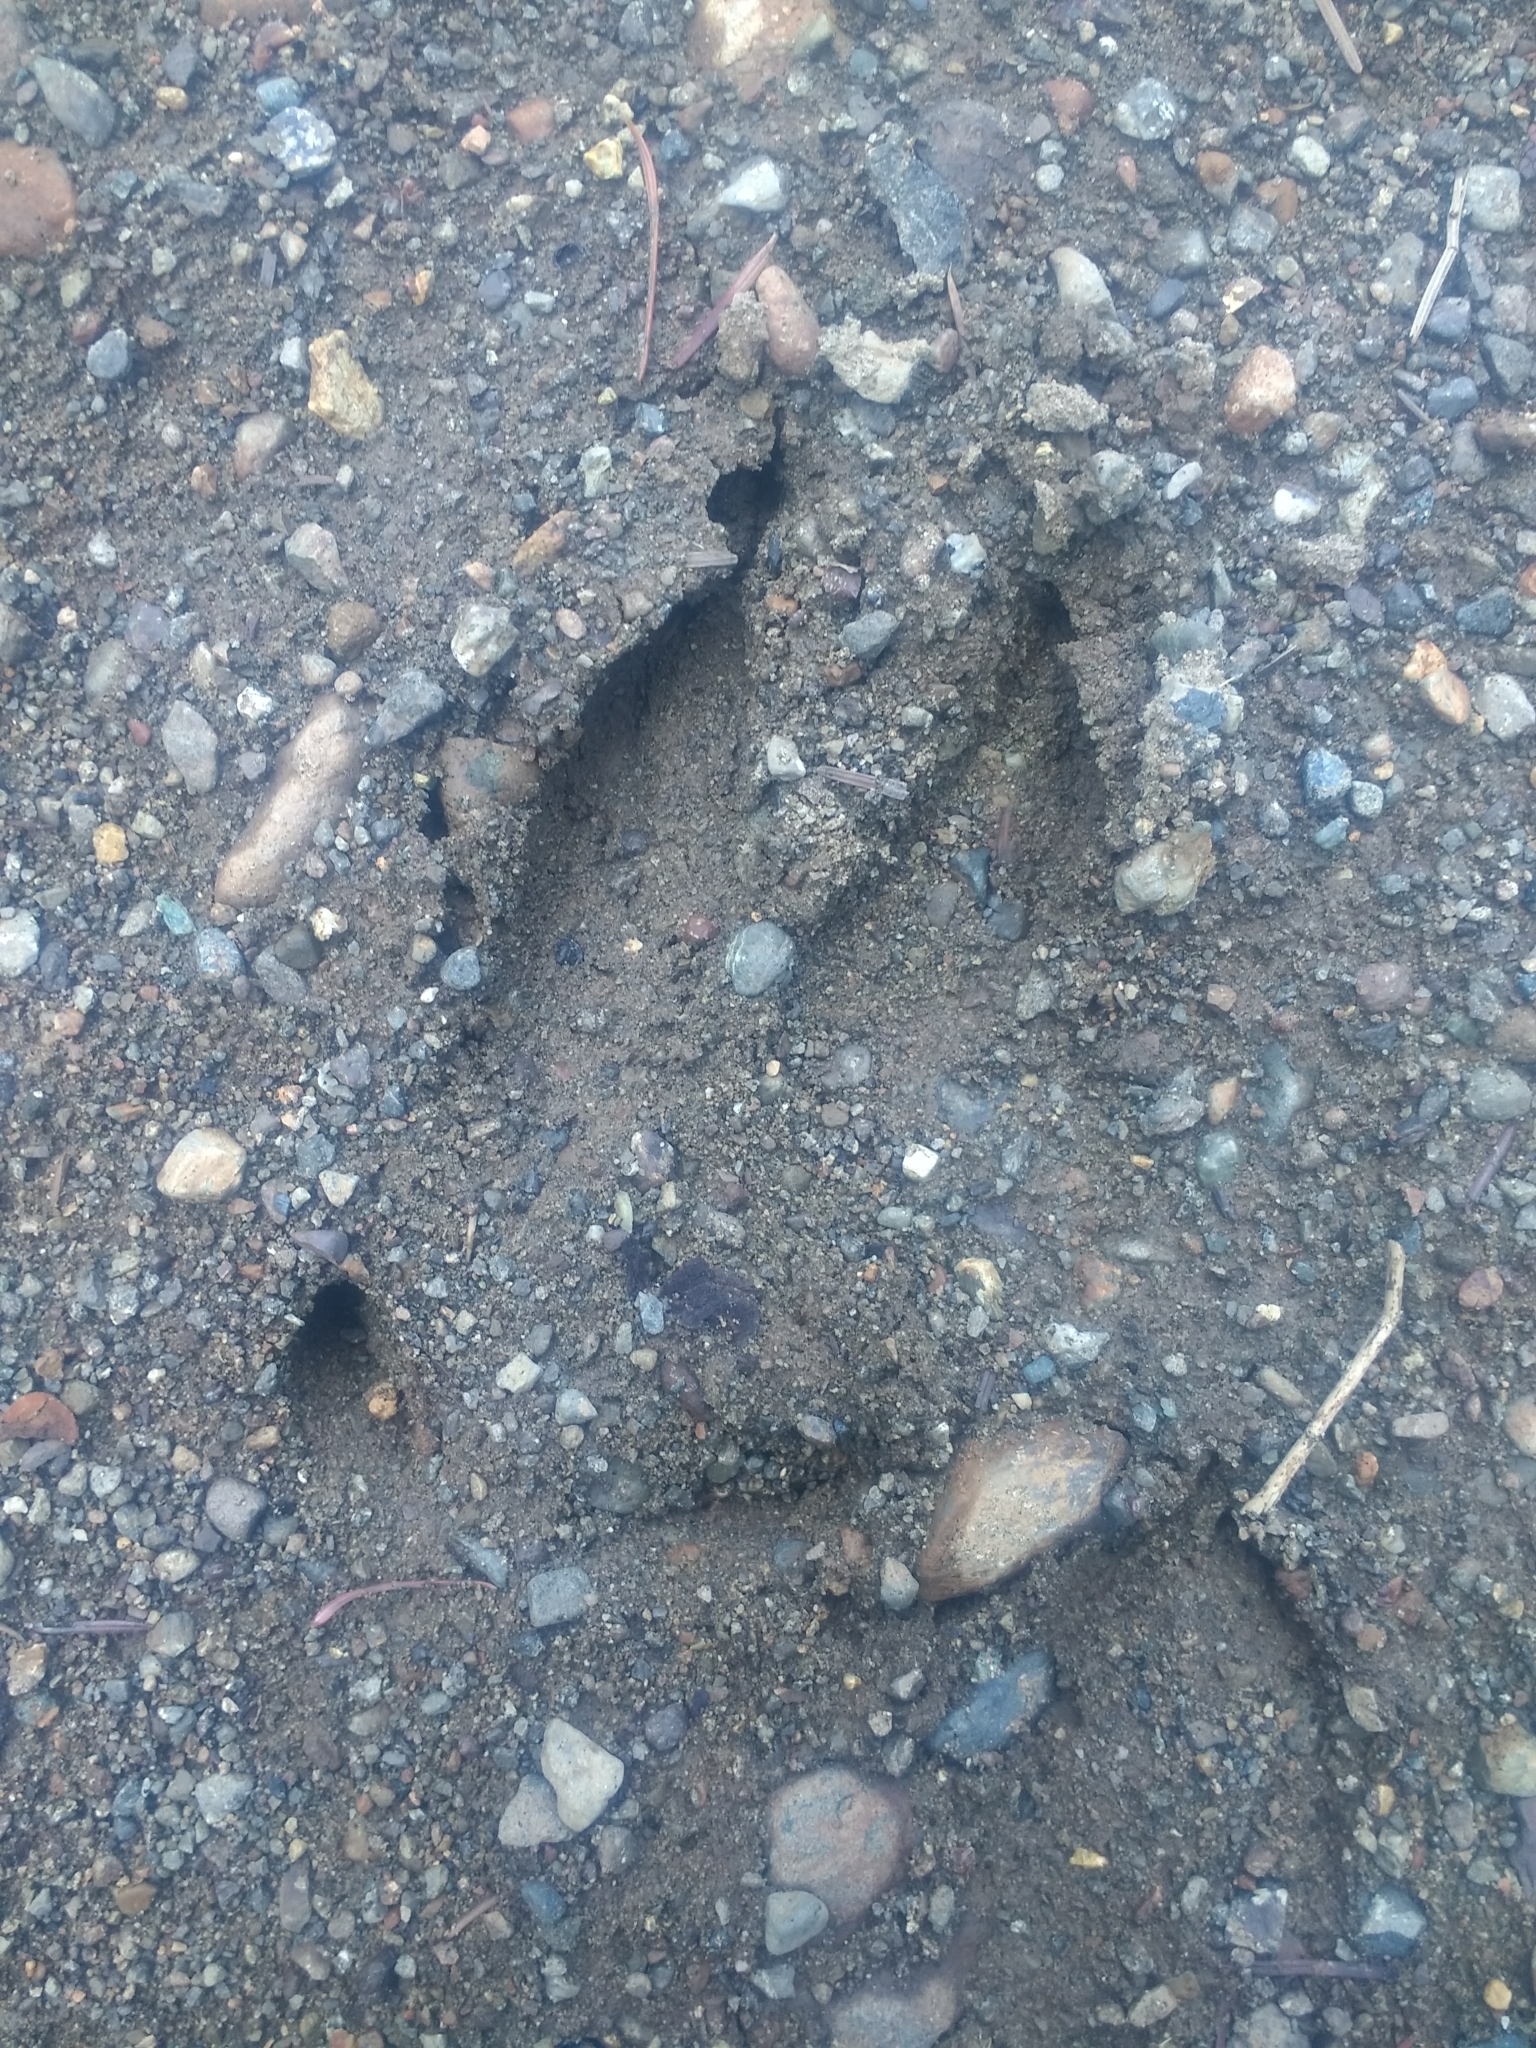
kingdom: Animalia
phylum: Chordata
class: Mammalia
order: Artiodactyla
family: Cervidae
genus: Odocoileus
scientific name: Odocoileus hemionus
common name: Mule deer
